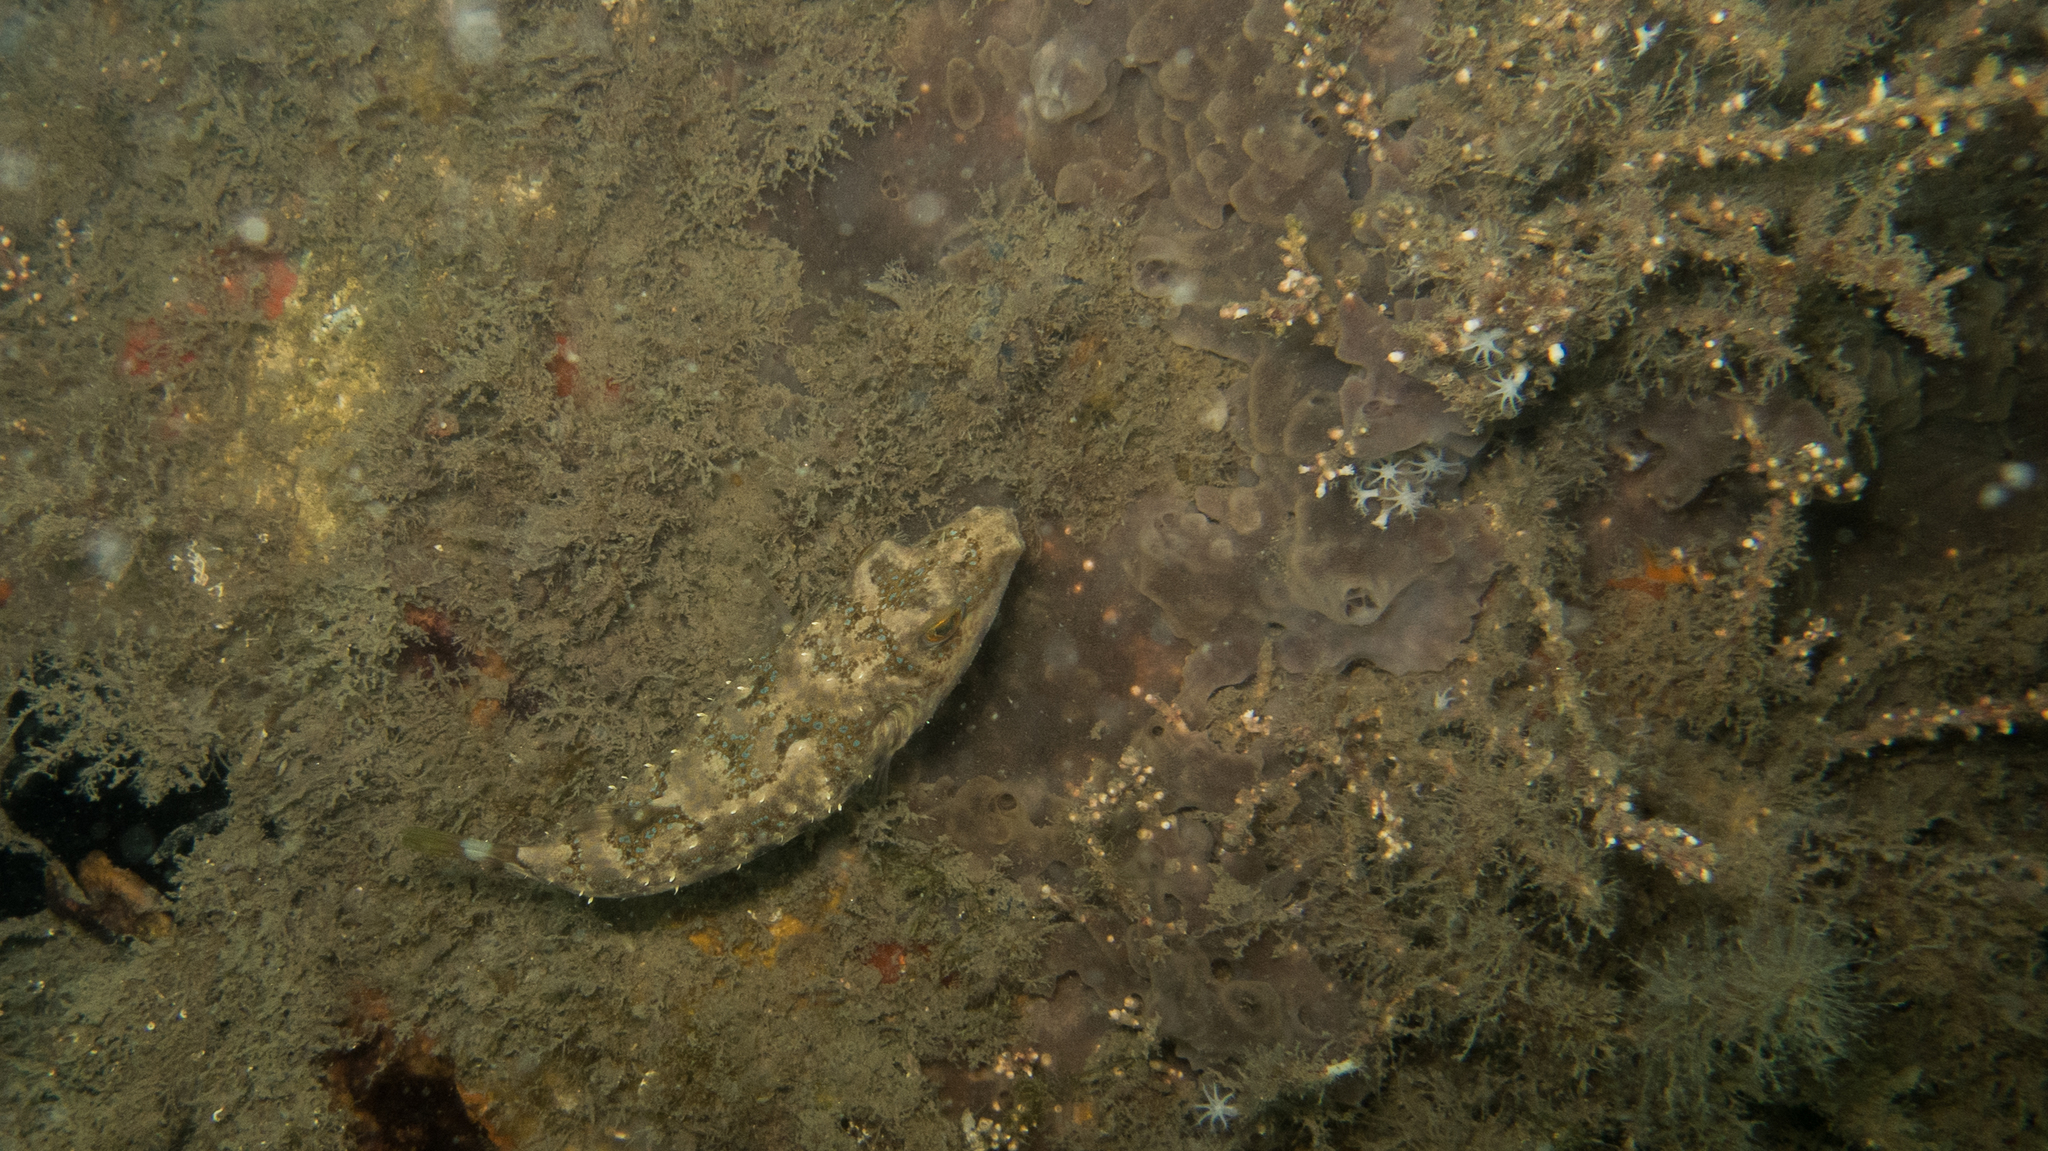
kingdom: Animalia
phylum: Chordata
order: Tetraodontiformes
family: Tetraodontidae
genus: Sphoeroides
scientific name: Sphoeroides
